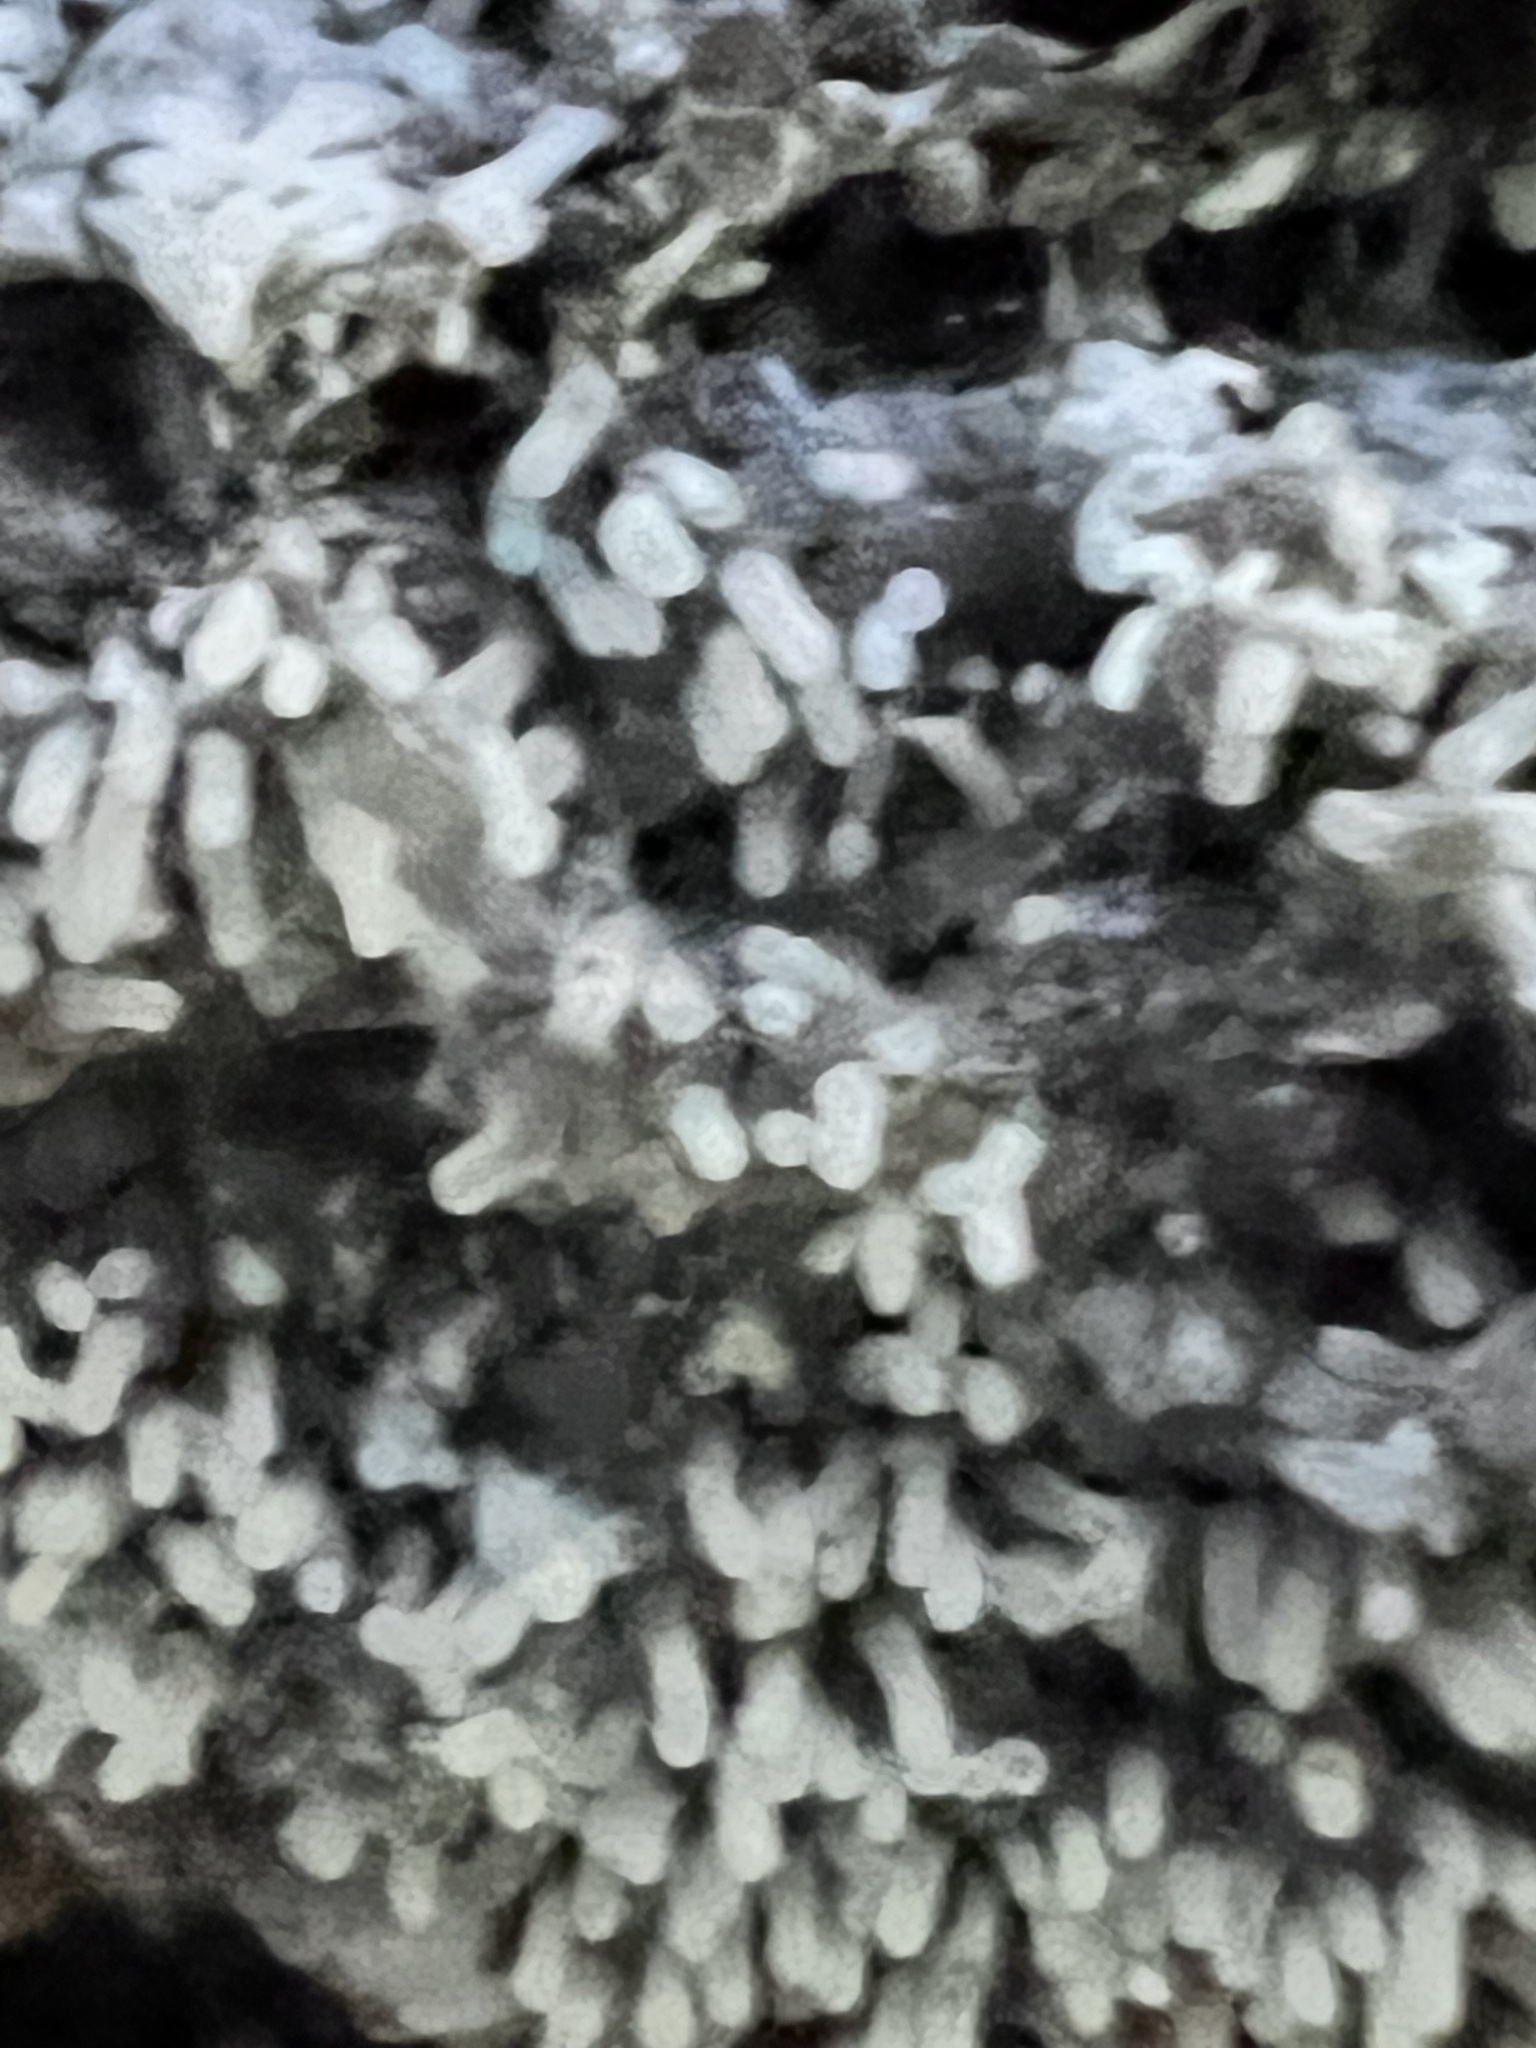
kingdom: Protozoa
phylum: Mycetozoa
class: Protosteliomycetes
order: Ceratiomyxales
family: Ceratiomyxaceae
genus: Ceratiomyxa
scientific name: Ceratiomyxa fruticulosa
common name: Honeycomb coral slime mold
